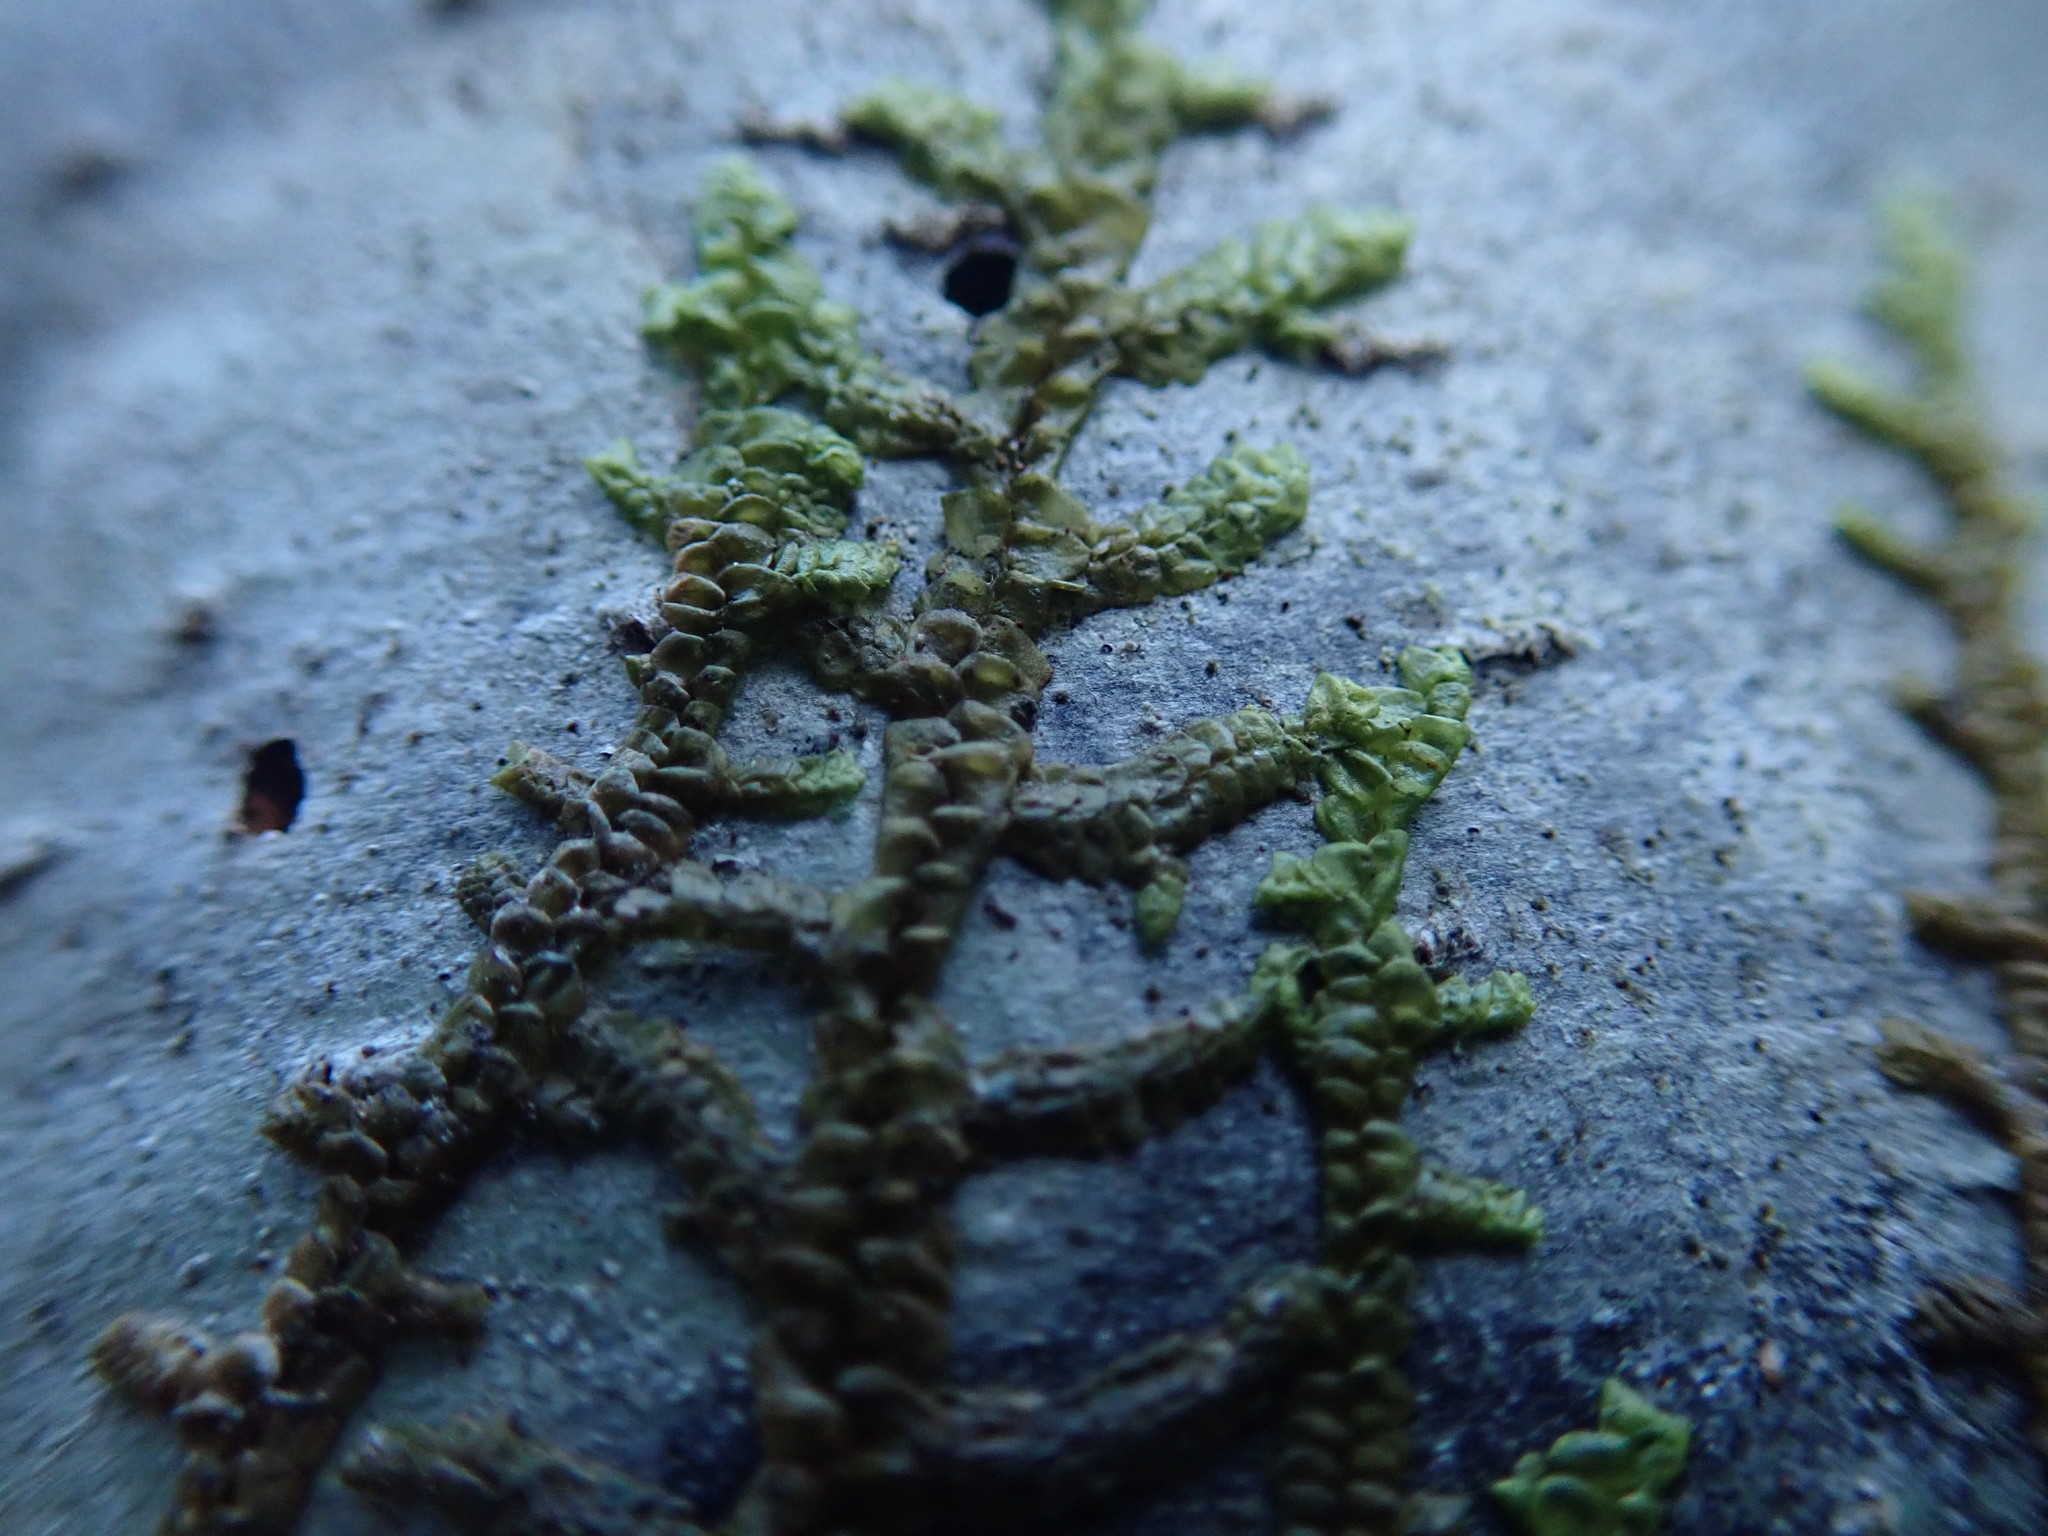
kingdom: Plantae
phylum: Marchantiophyta
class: Jungermanniopsida
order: Porellales
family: Porellaceae
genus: Porella
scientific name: Porella navicularis
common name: Tree ruffle liverwort
